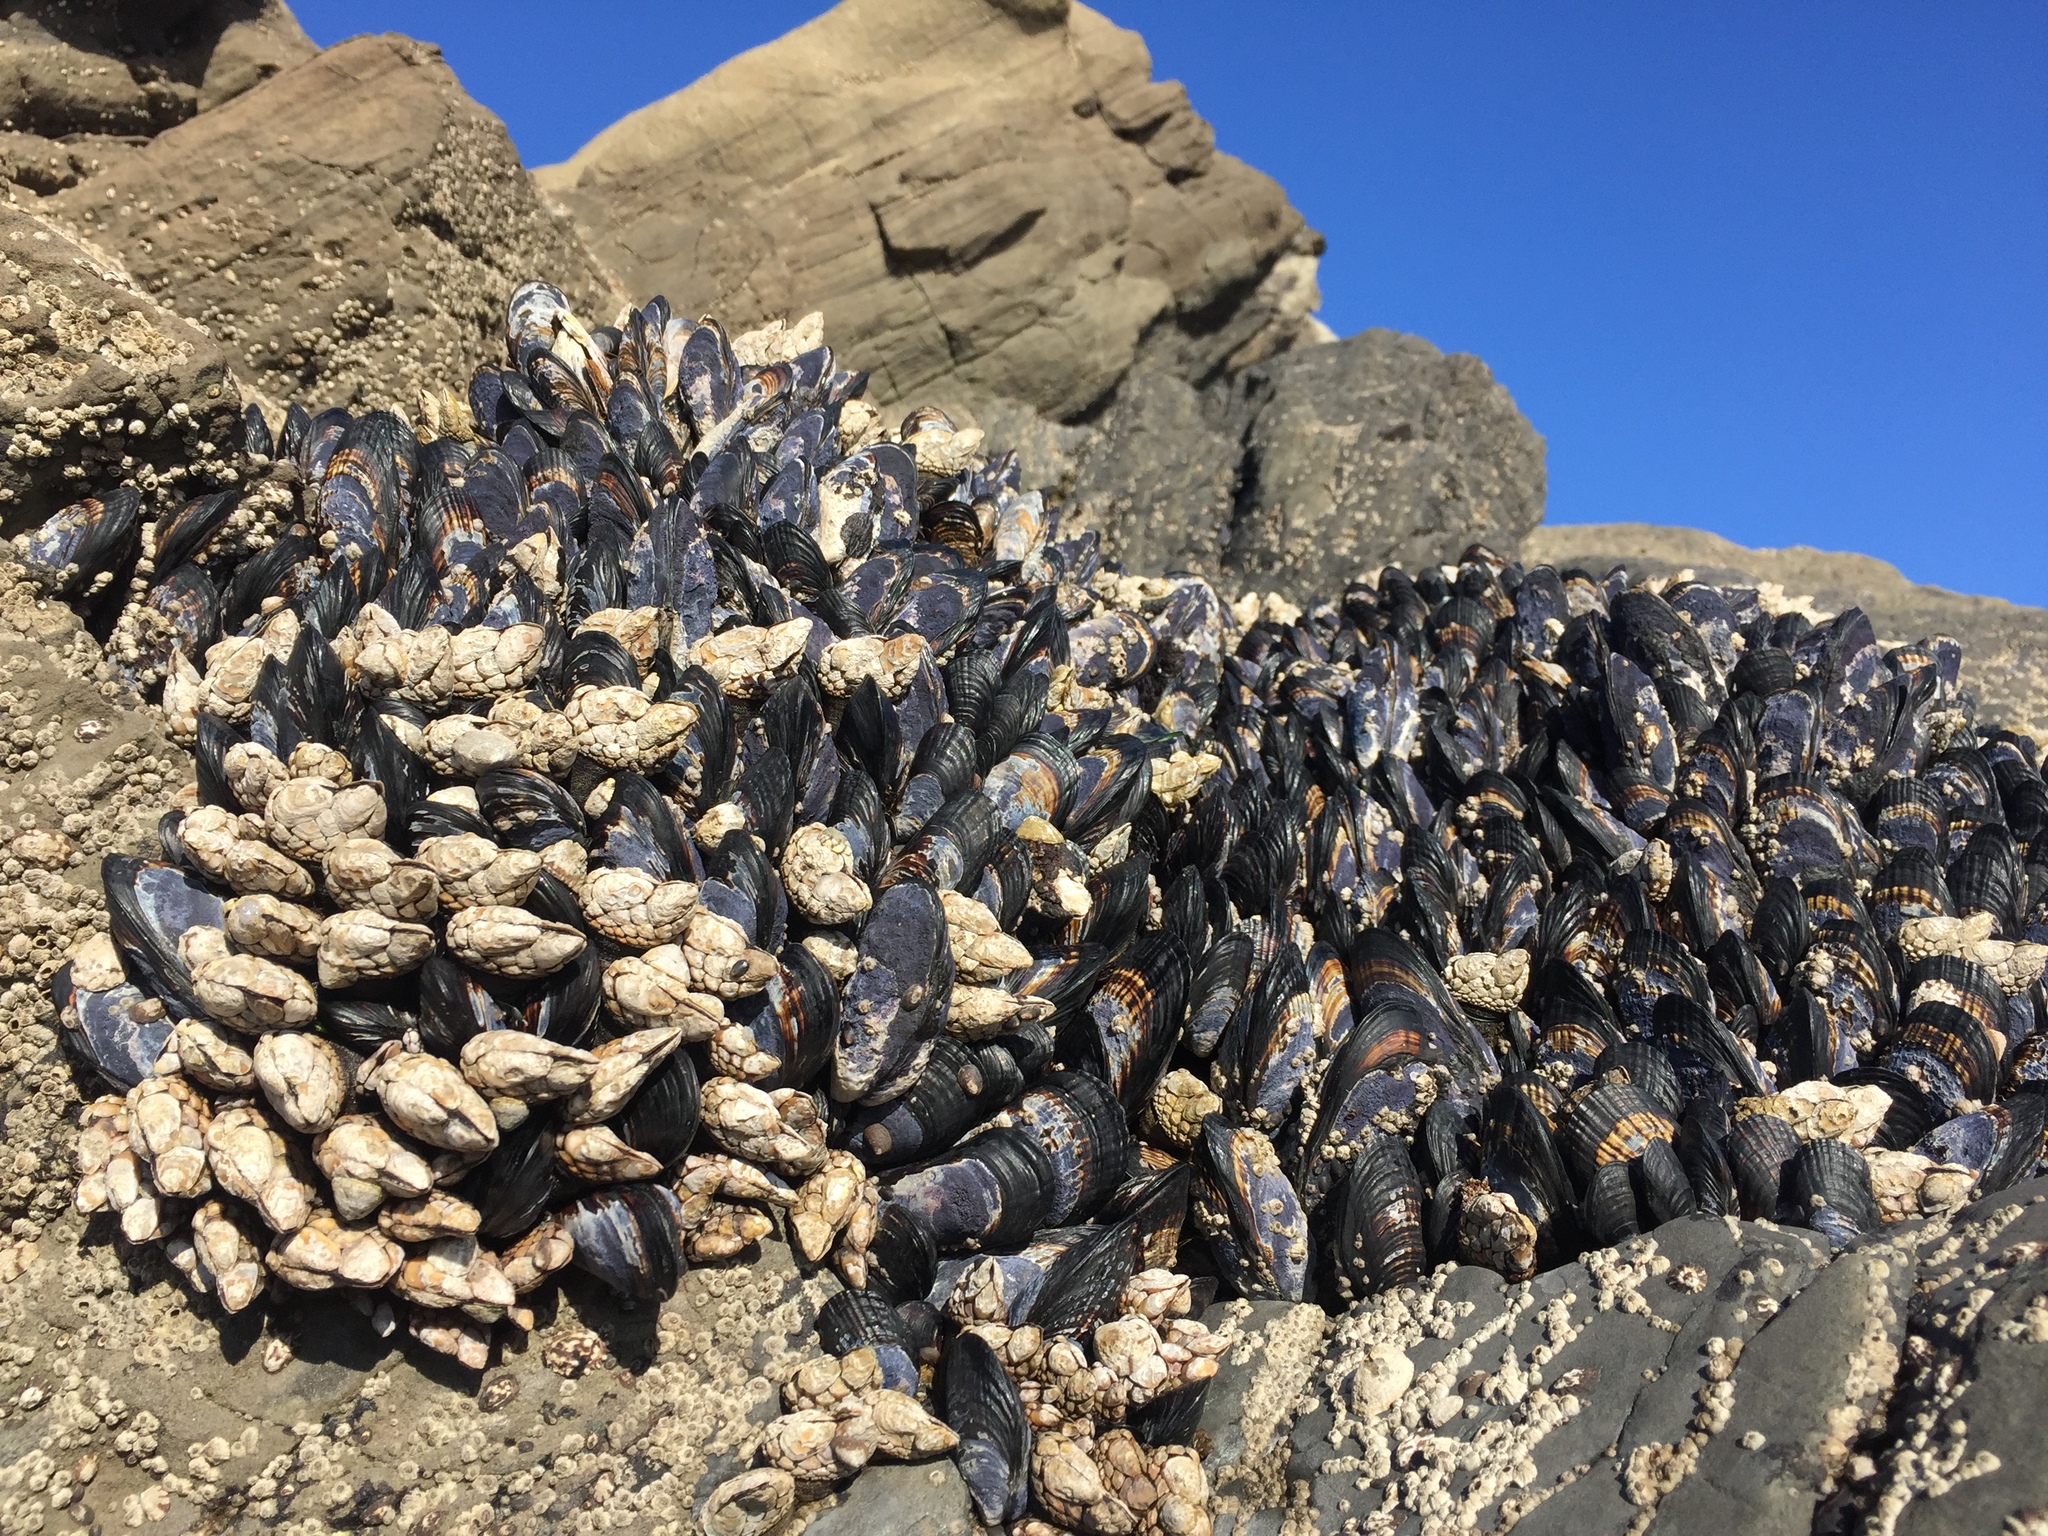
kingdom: Animalia
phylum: Mollusca
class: Bivalvia
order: Mytilida
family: Mytilidae
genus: Mytilus
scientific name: Mytilus californianus
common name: California mussel
